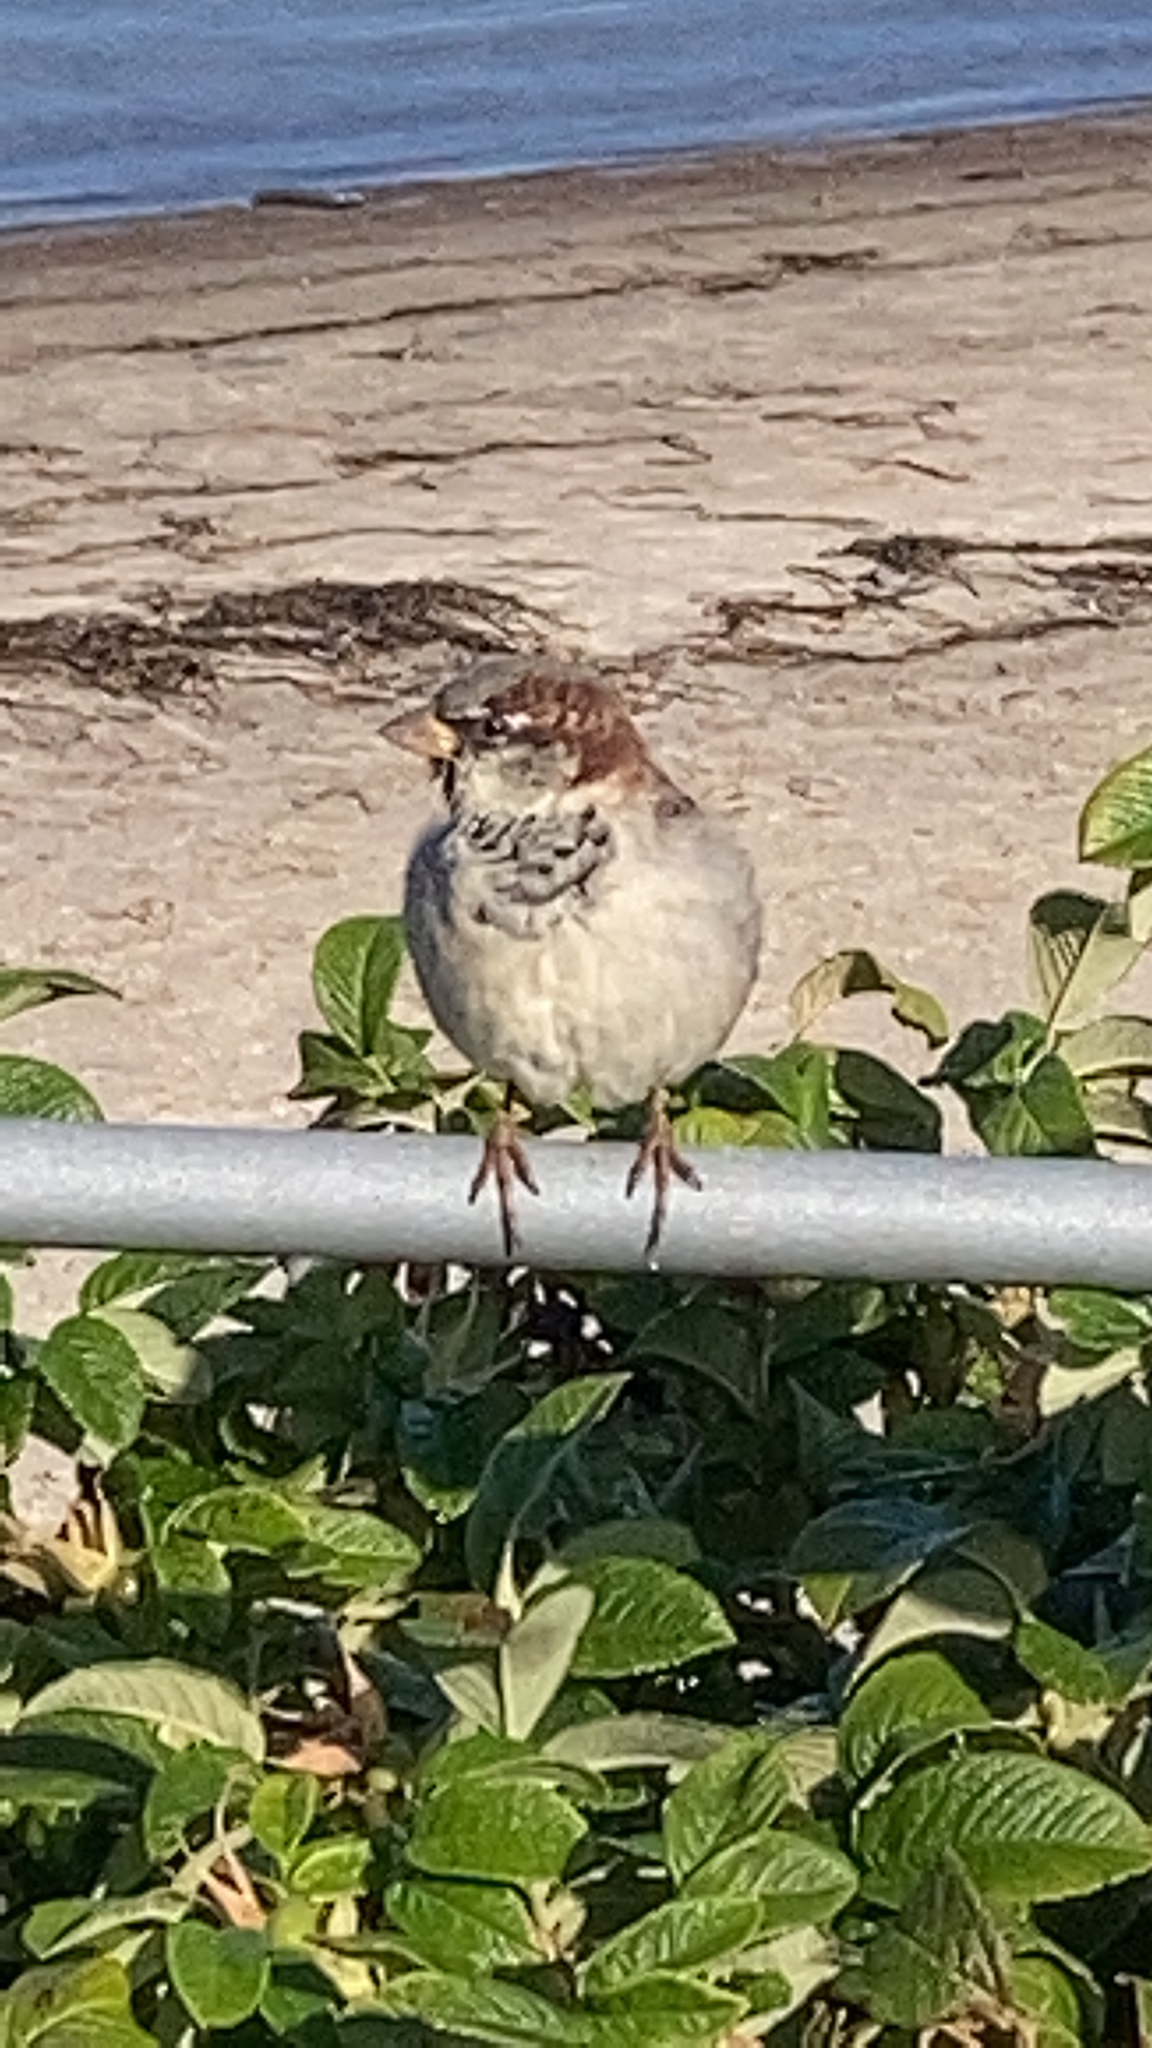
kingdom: Animalia
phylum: Chordata
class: Aves
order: Passeriformes
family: Passeridae
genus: Passer
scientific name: Passer domesticus
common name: House sparrow
